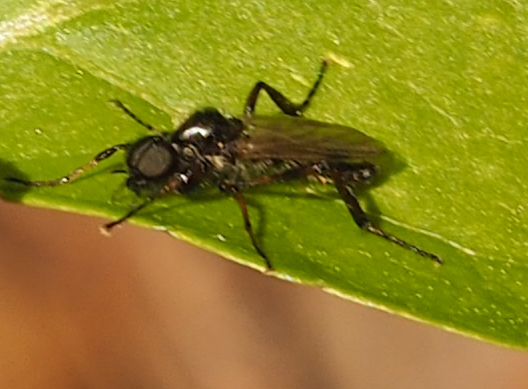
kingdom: Animalia
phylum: Arthropoda
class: Insecta
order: Diptera
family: Bibionidae
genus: Bibio
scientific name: Bibio
